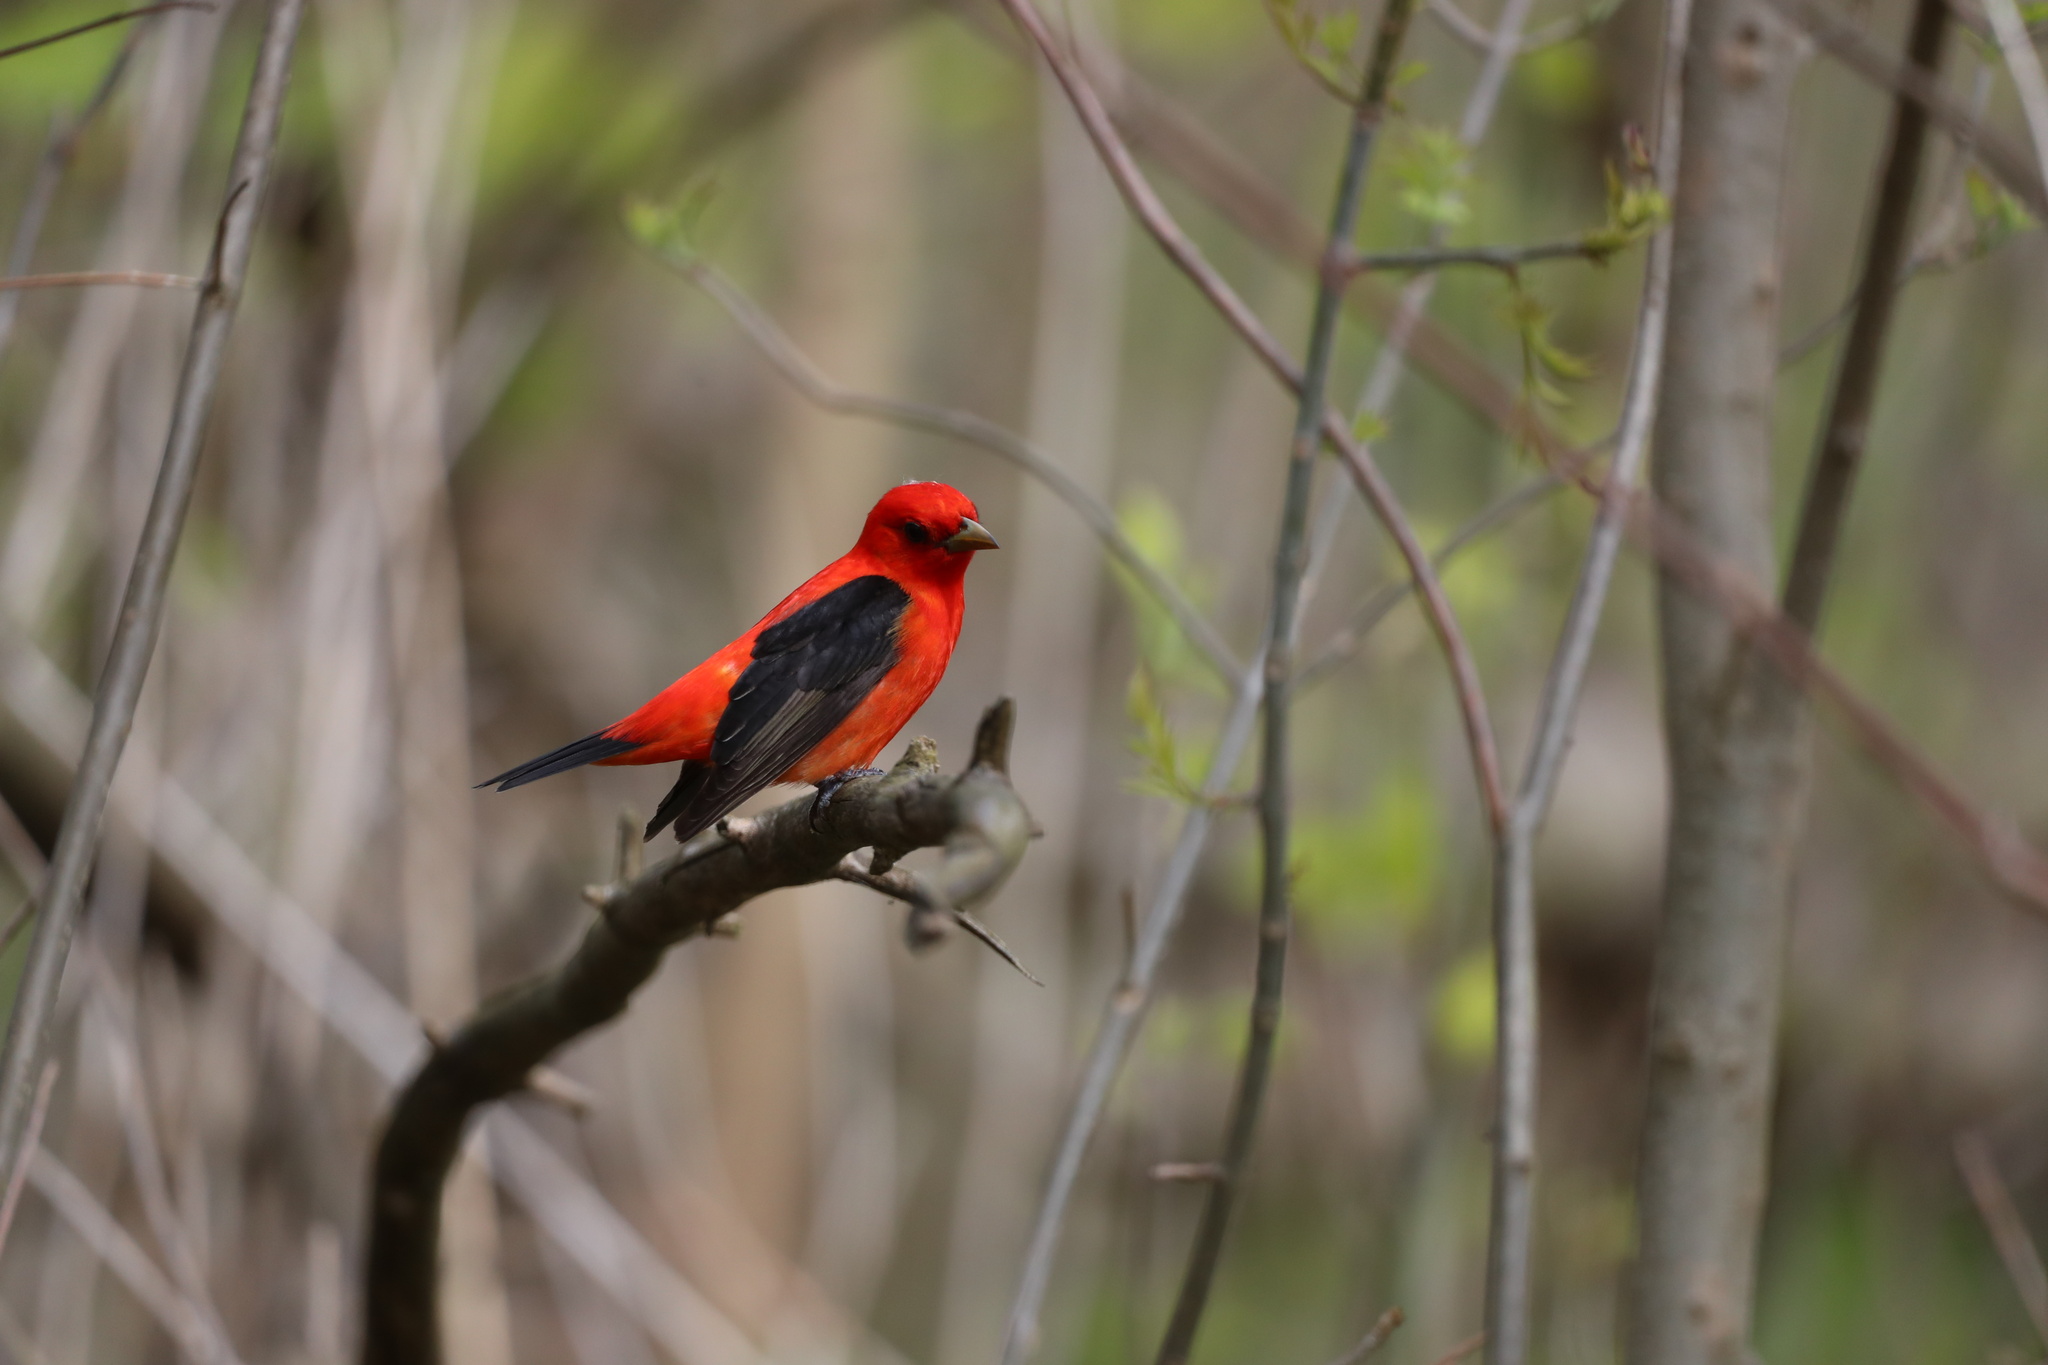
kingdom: Animalia
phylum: Chordata
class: Aves
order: Passeriformes
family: Cardinalidae
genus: Piranga
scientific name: Piranga olivacea
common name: Scarlet tanager
